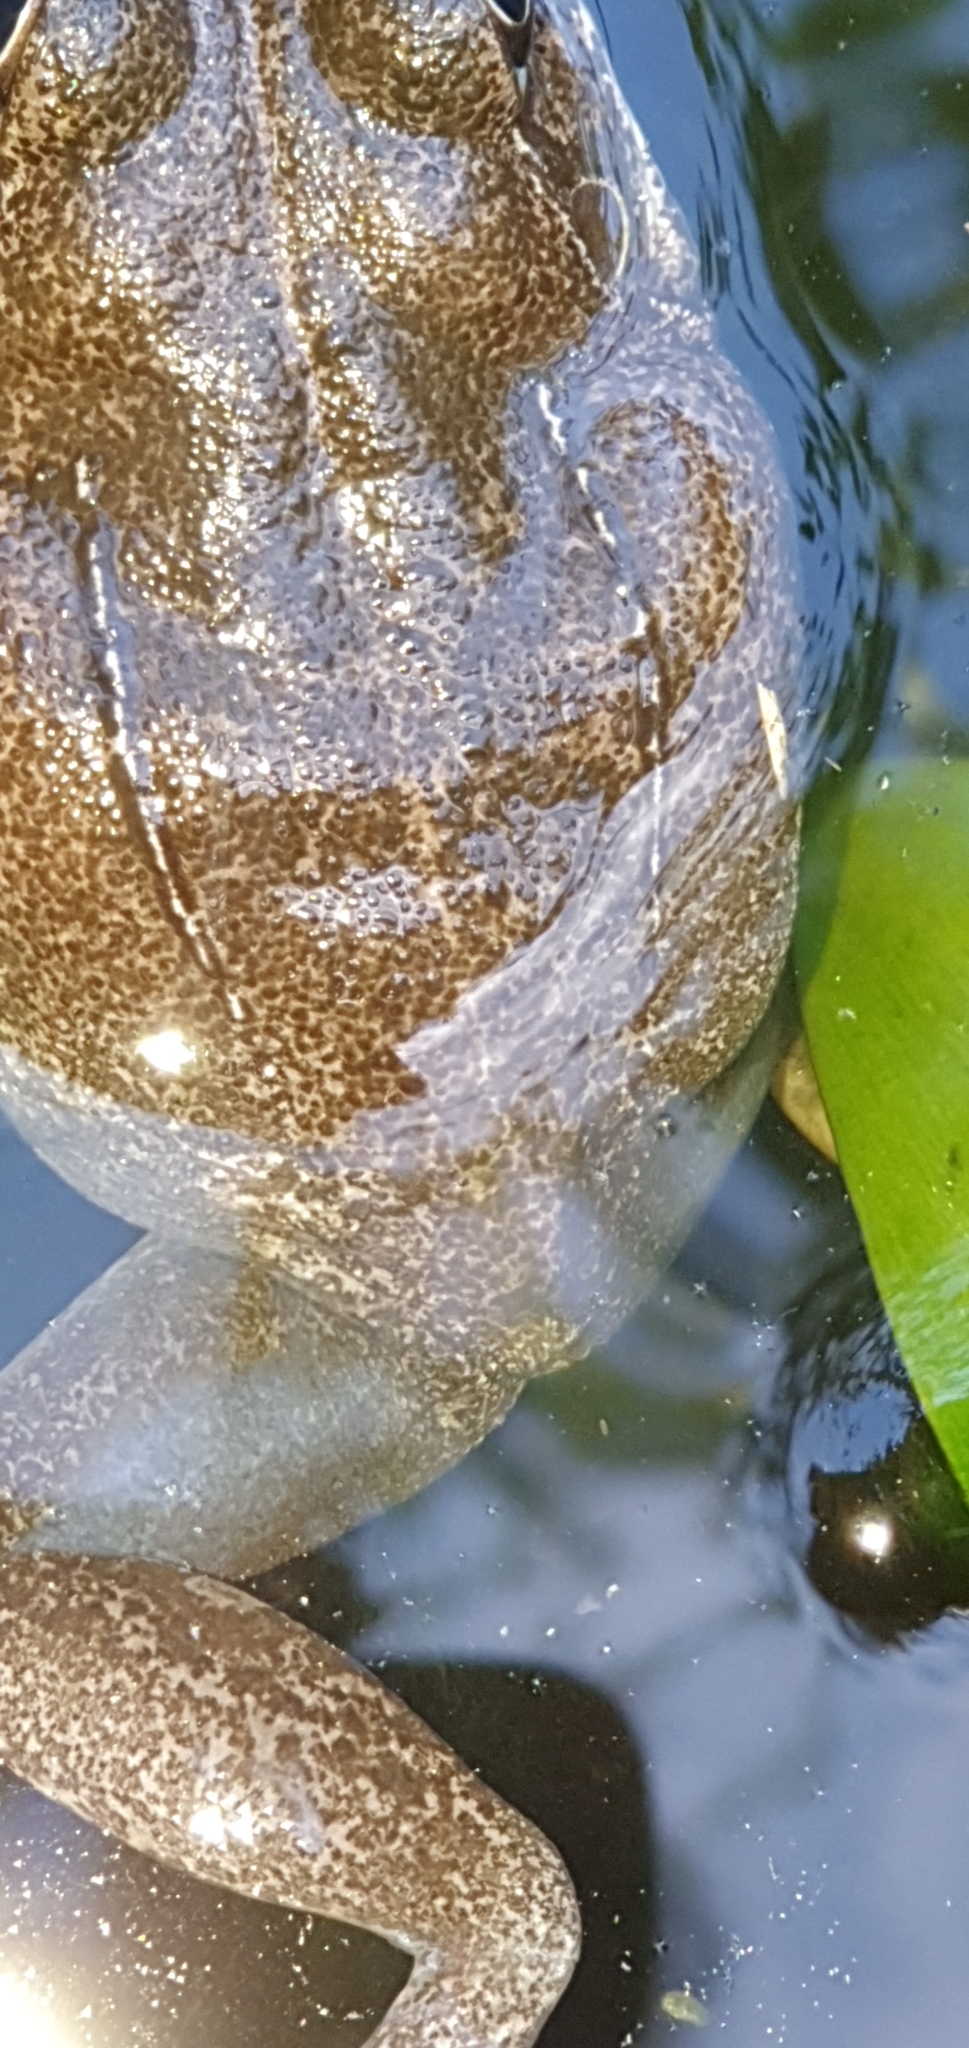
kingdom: Animalia
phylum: Chordata
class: Amphibia
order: Anura
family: Pelodryadidae
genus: Ranoidea
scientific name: Ranoidea novaehollandiae
